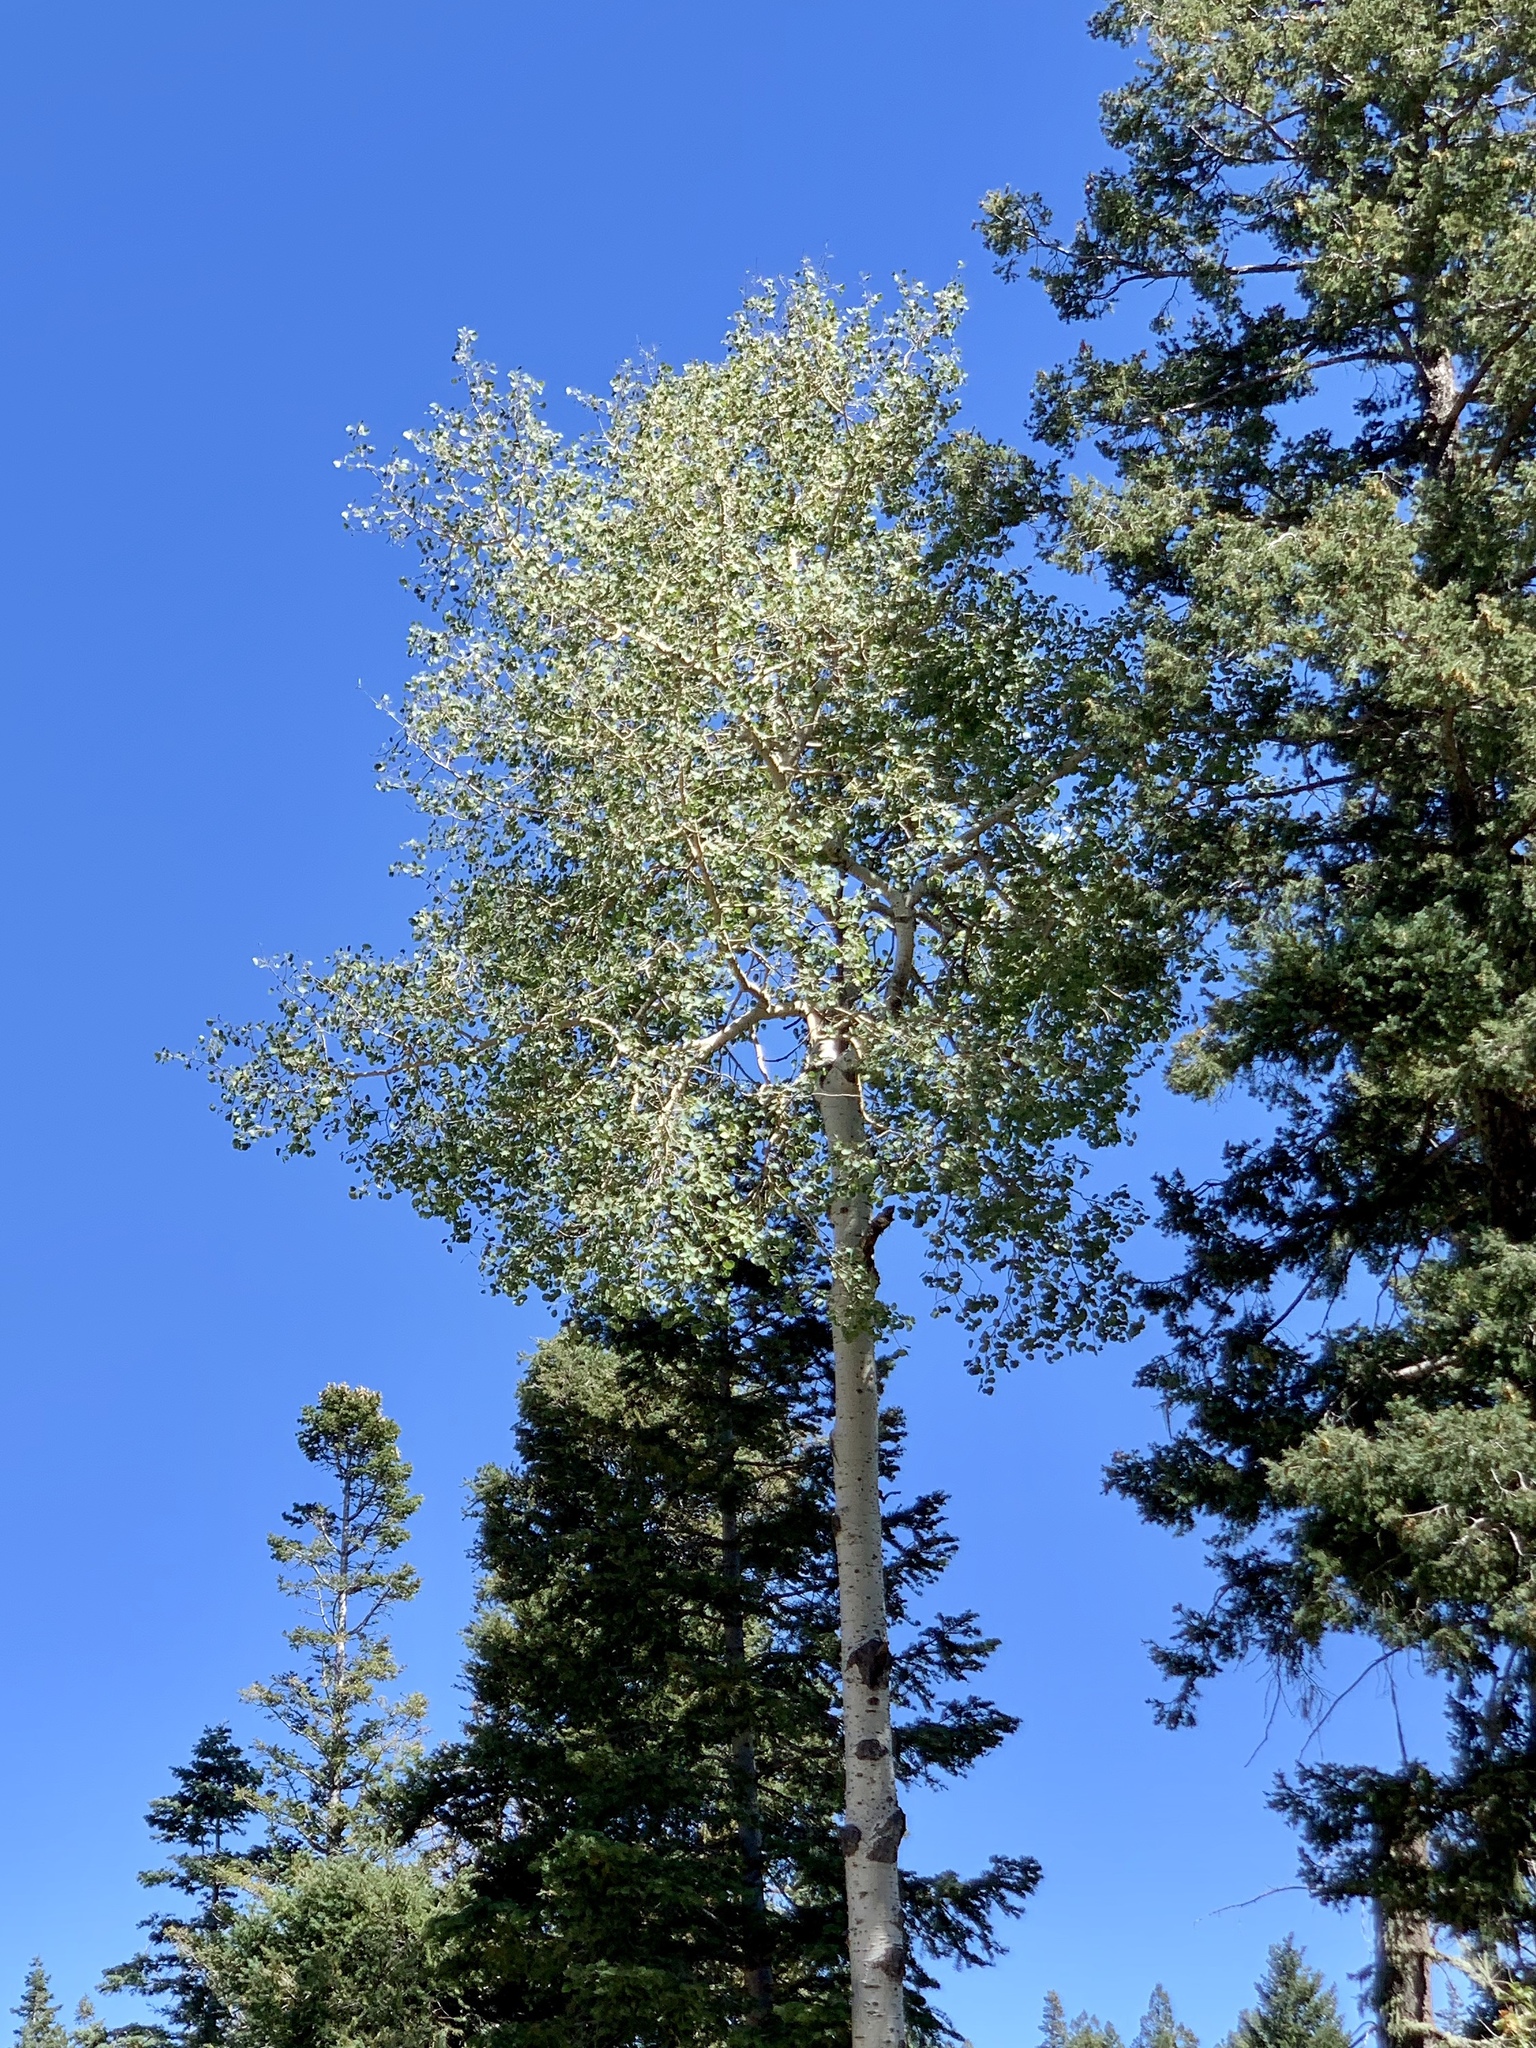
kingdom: Plantae
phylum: Tracheophyta
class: Magnoliopsida
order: Malpighiales
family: Salicaceae
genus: Populus
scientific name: Populus tremuloides
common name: Quaking aspen
